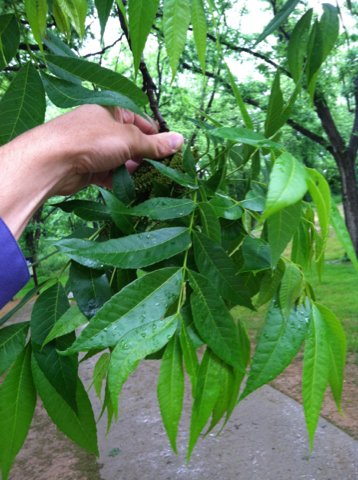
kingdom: Plantae
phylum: Tracheophyta
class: Magnoliopsida
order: Fagales
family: Juglandaceae
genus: Carya
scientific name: Carya illinoinensis
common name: Pecan
